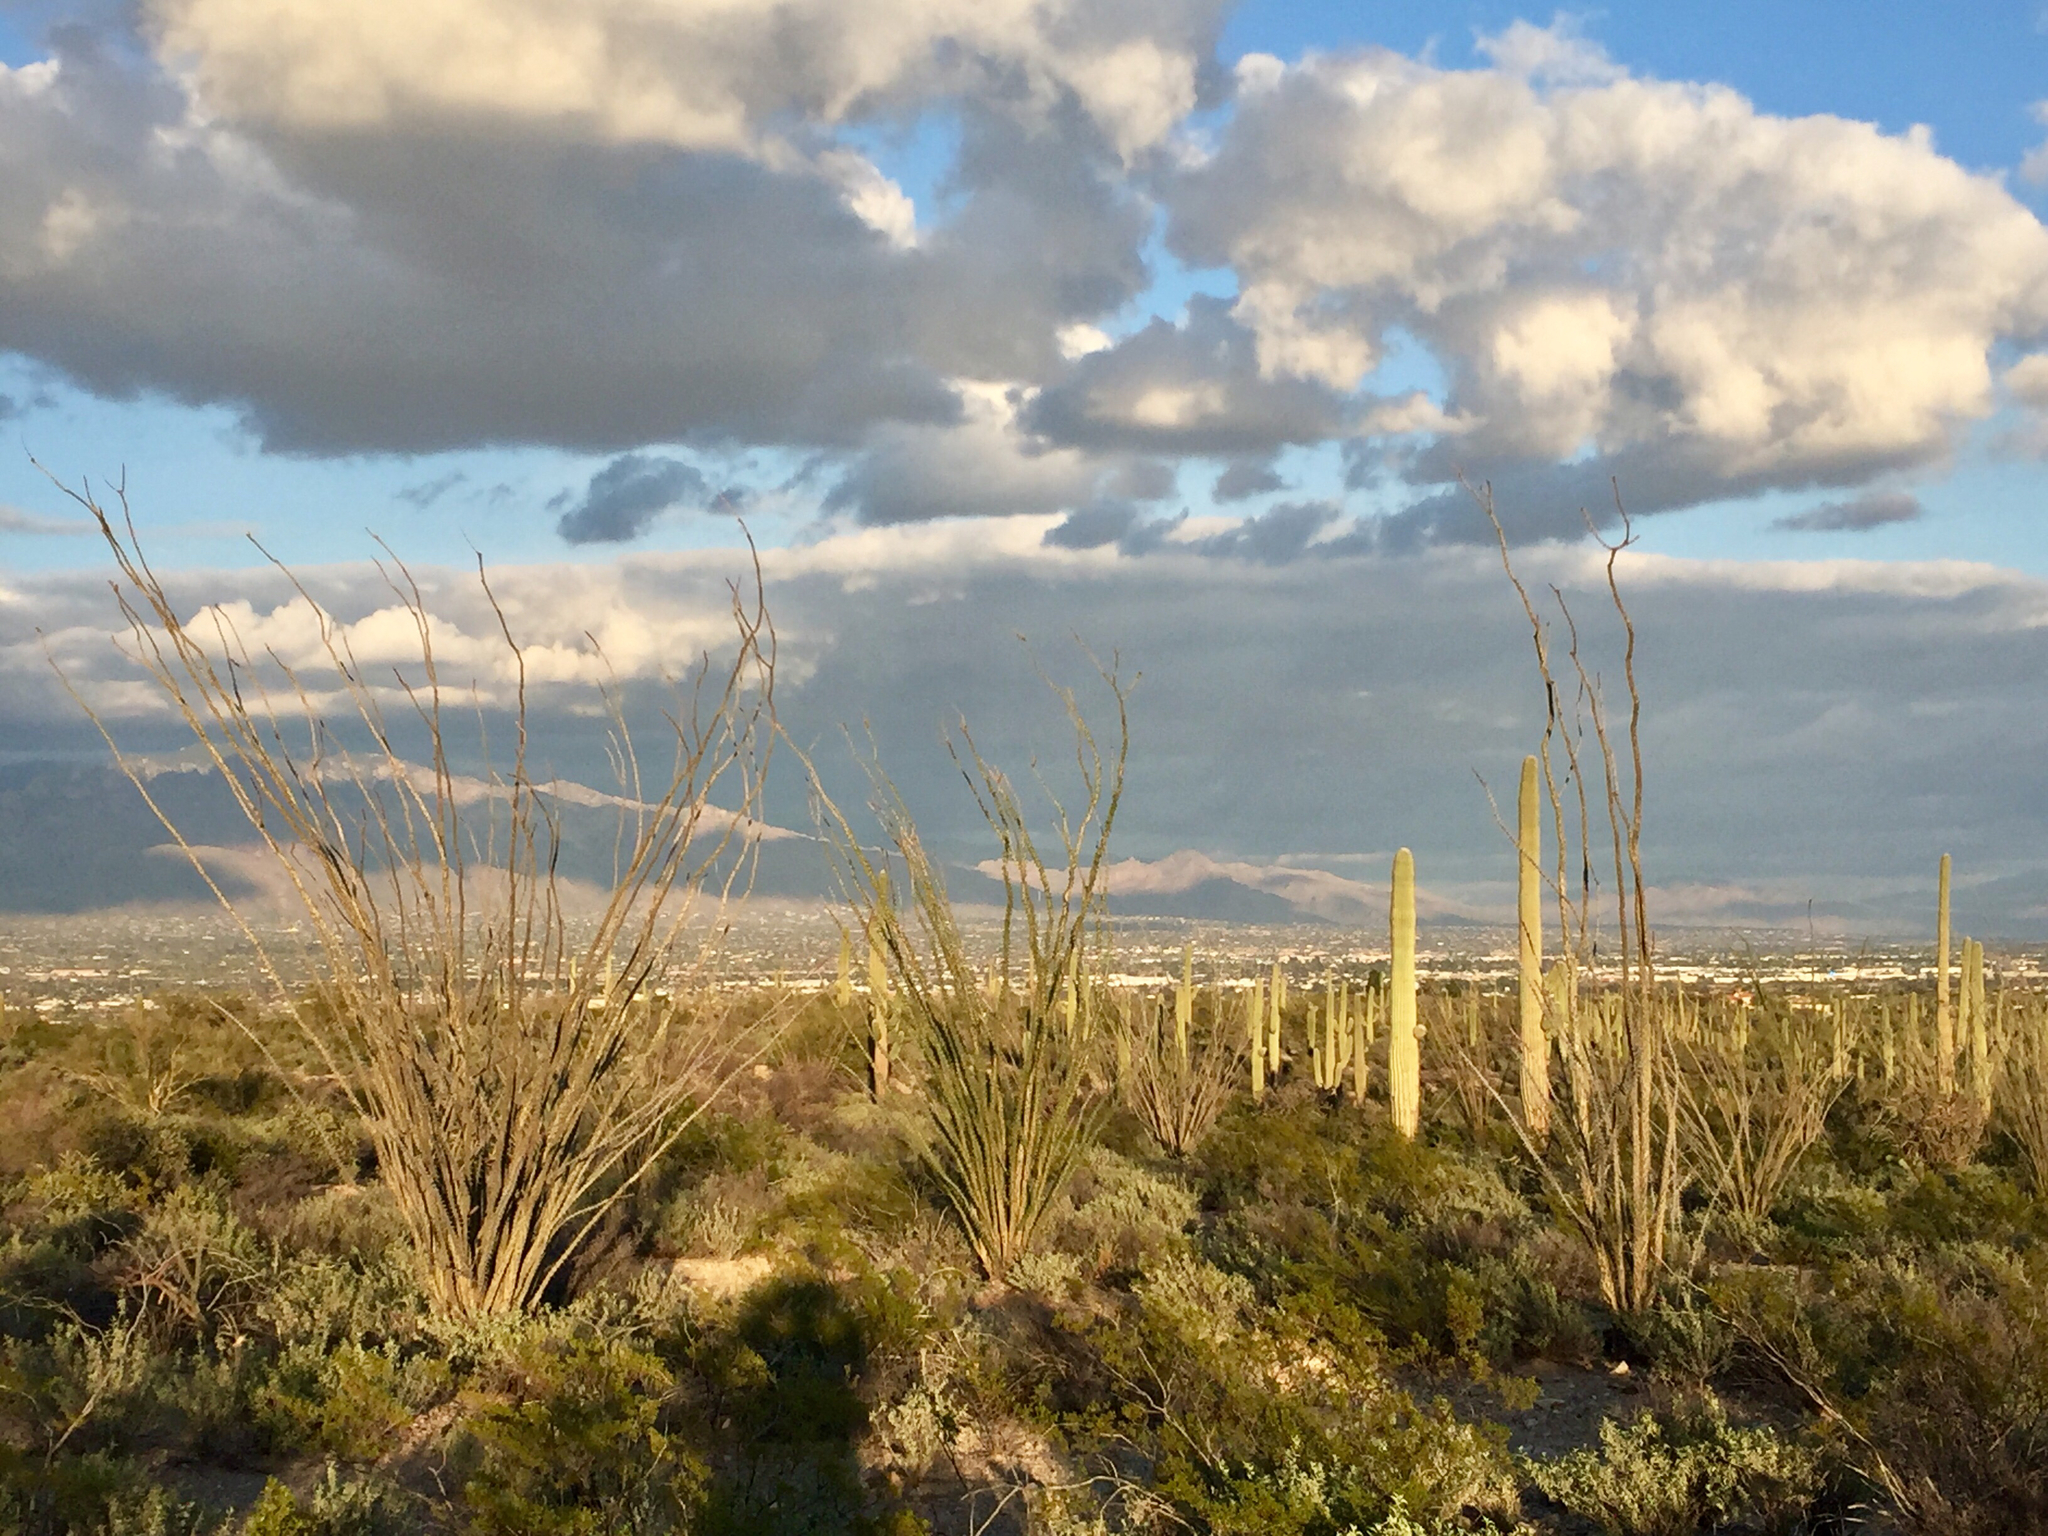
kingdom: Plantae
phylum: Tracheophyta
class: Magnoliopsida
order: Ericales
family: Fouquieriaceae
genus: Fouquieria
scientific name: Fouquieria splendens
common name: Vine-cactus
